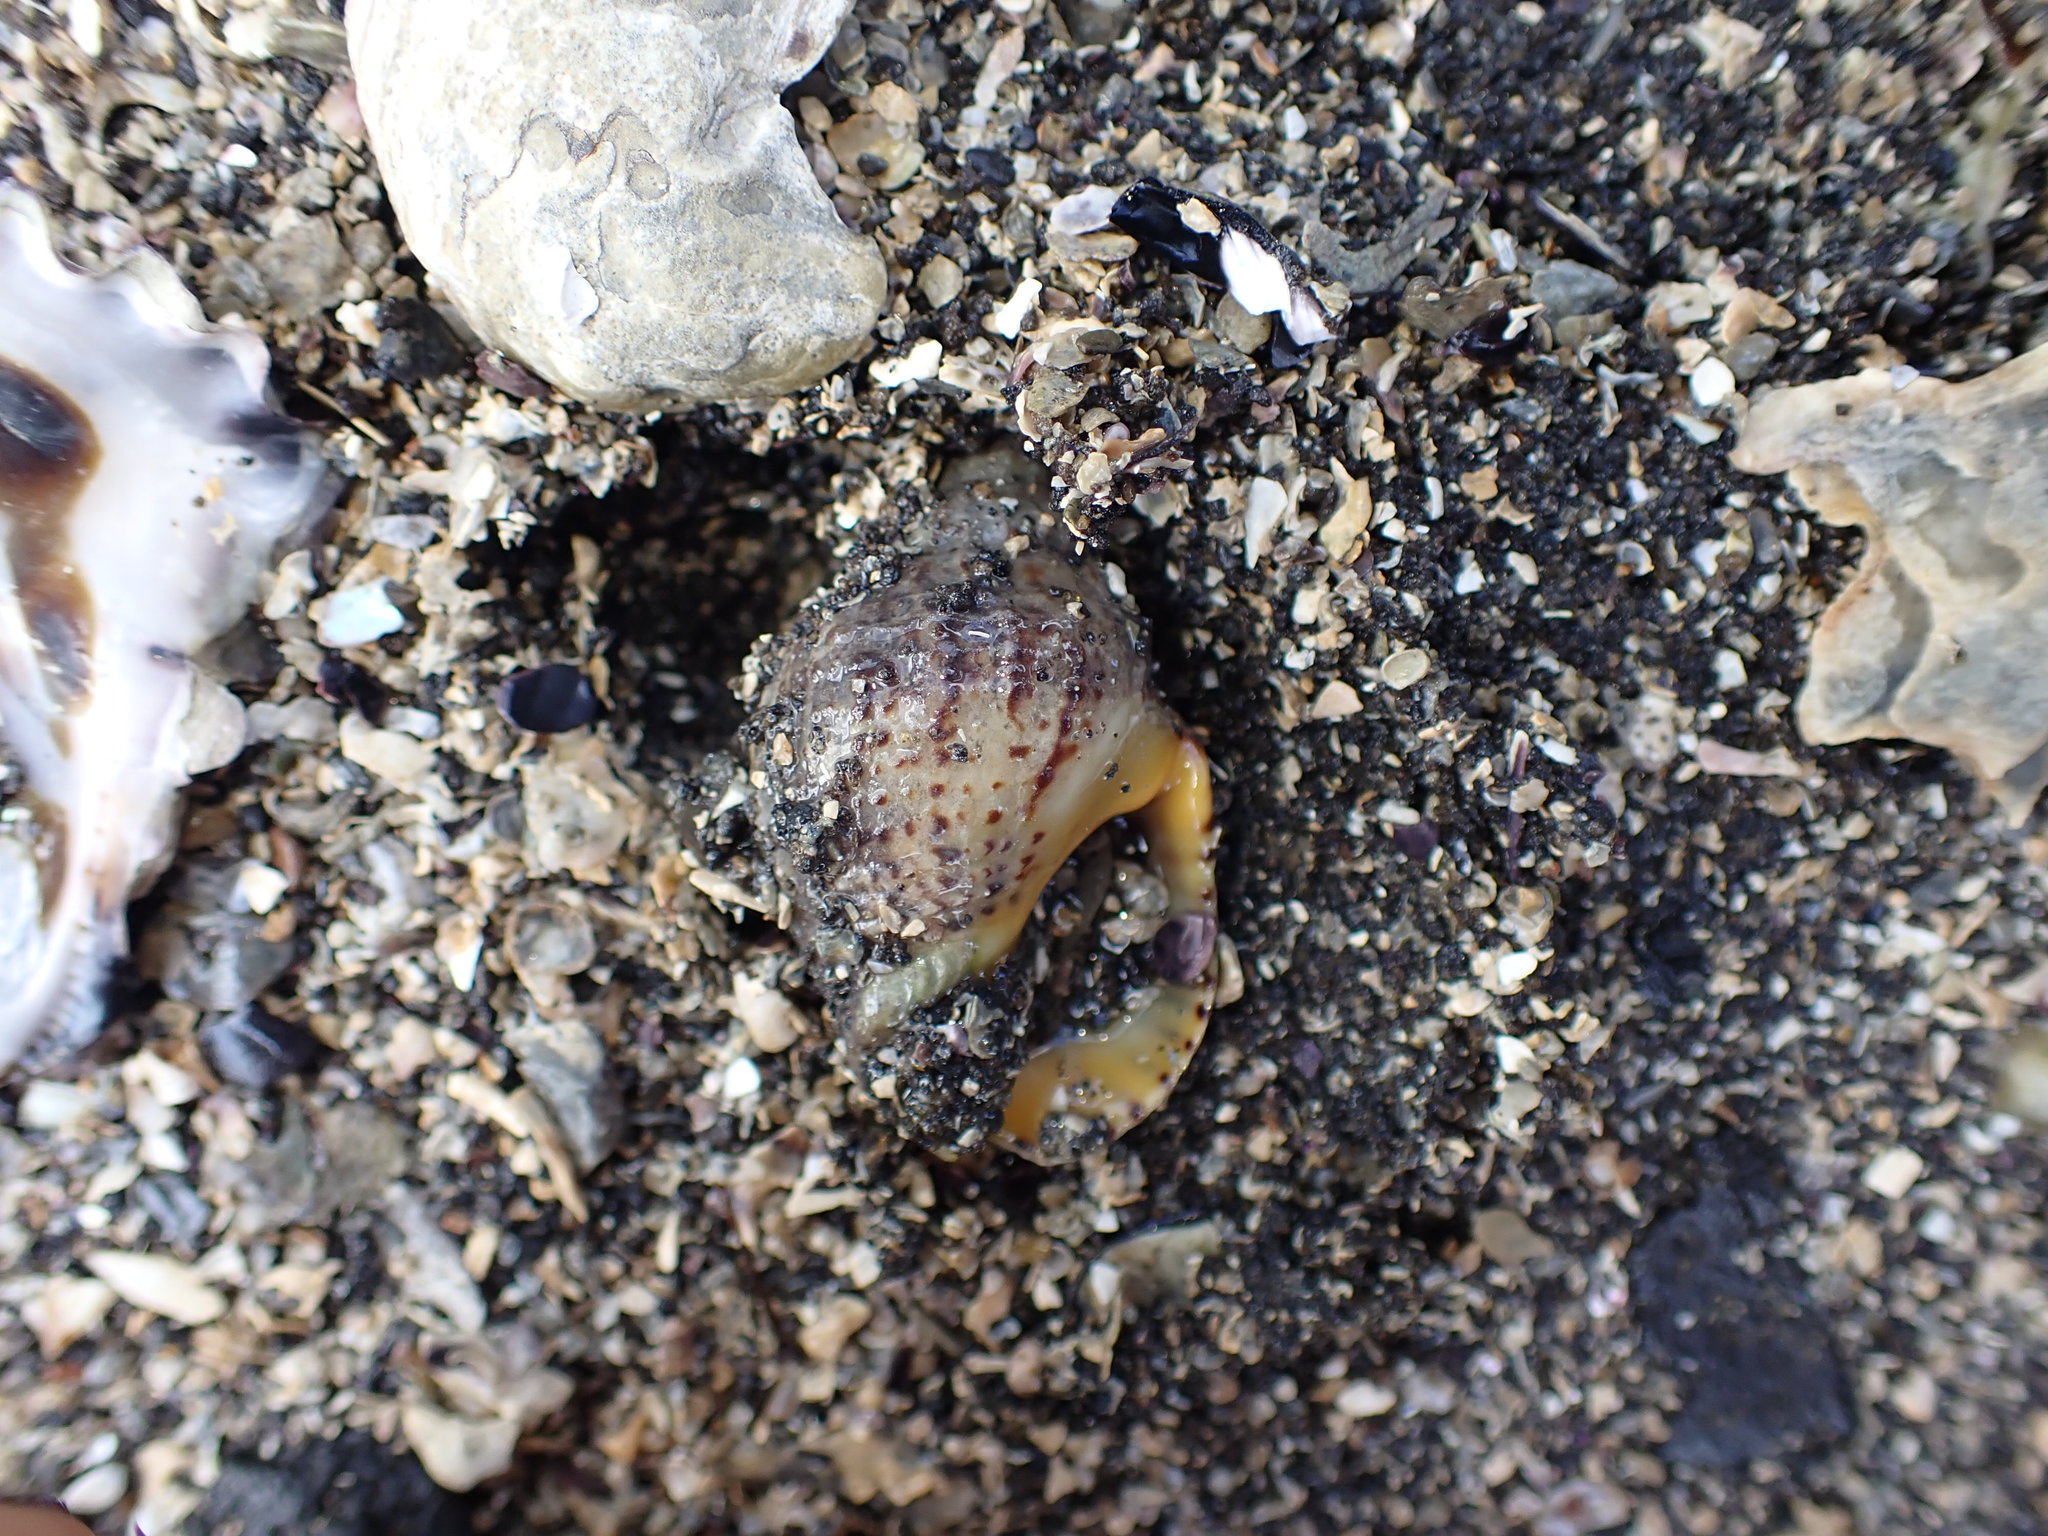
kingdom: Animalia
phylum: Mollusca
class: Gastropoda
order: Neogastropoda
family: Cominellidae
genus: Cominella
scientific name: Cominella adspersa
